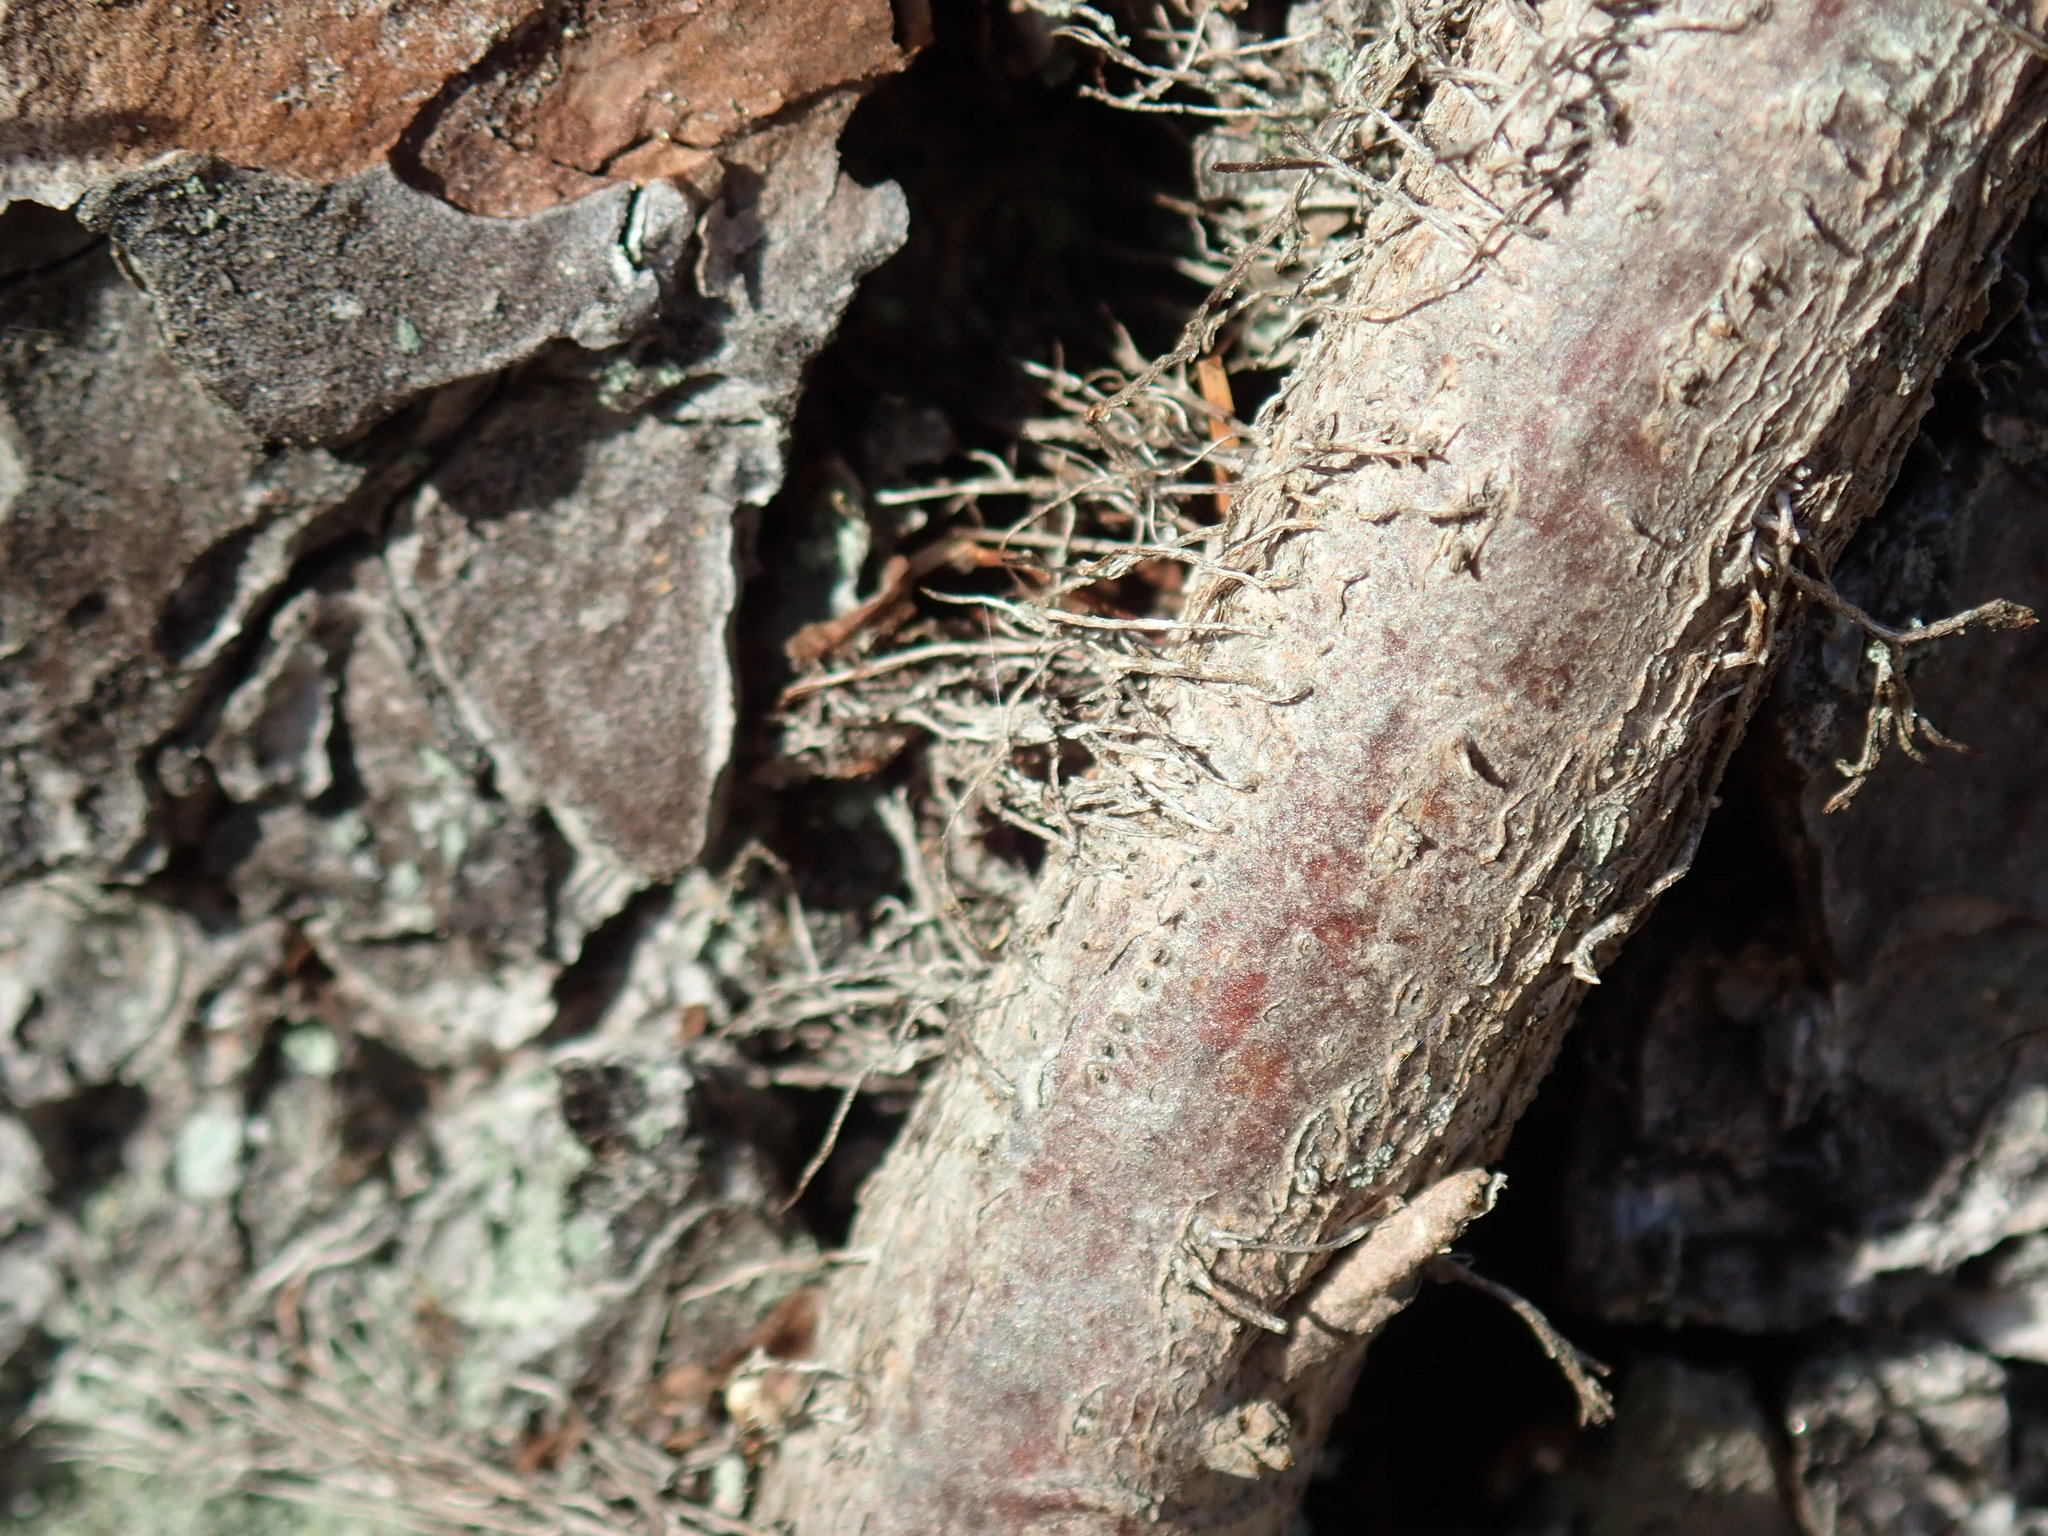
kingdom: Plantae
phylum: Tracheophyta
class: Magnoliopsida
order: Sapindales
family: Anacardiaceae
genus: Toxicodendron
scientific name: Toxicodendron radicans
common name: Poison ivy
